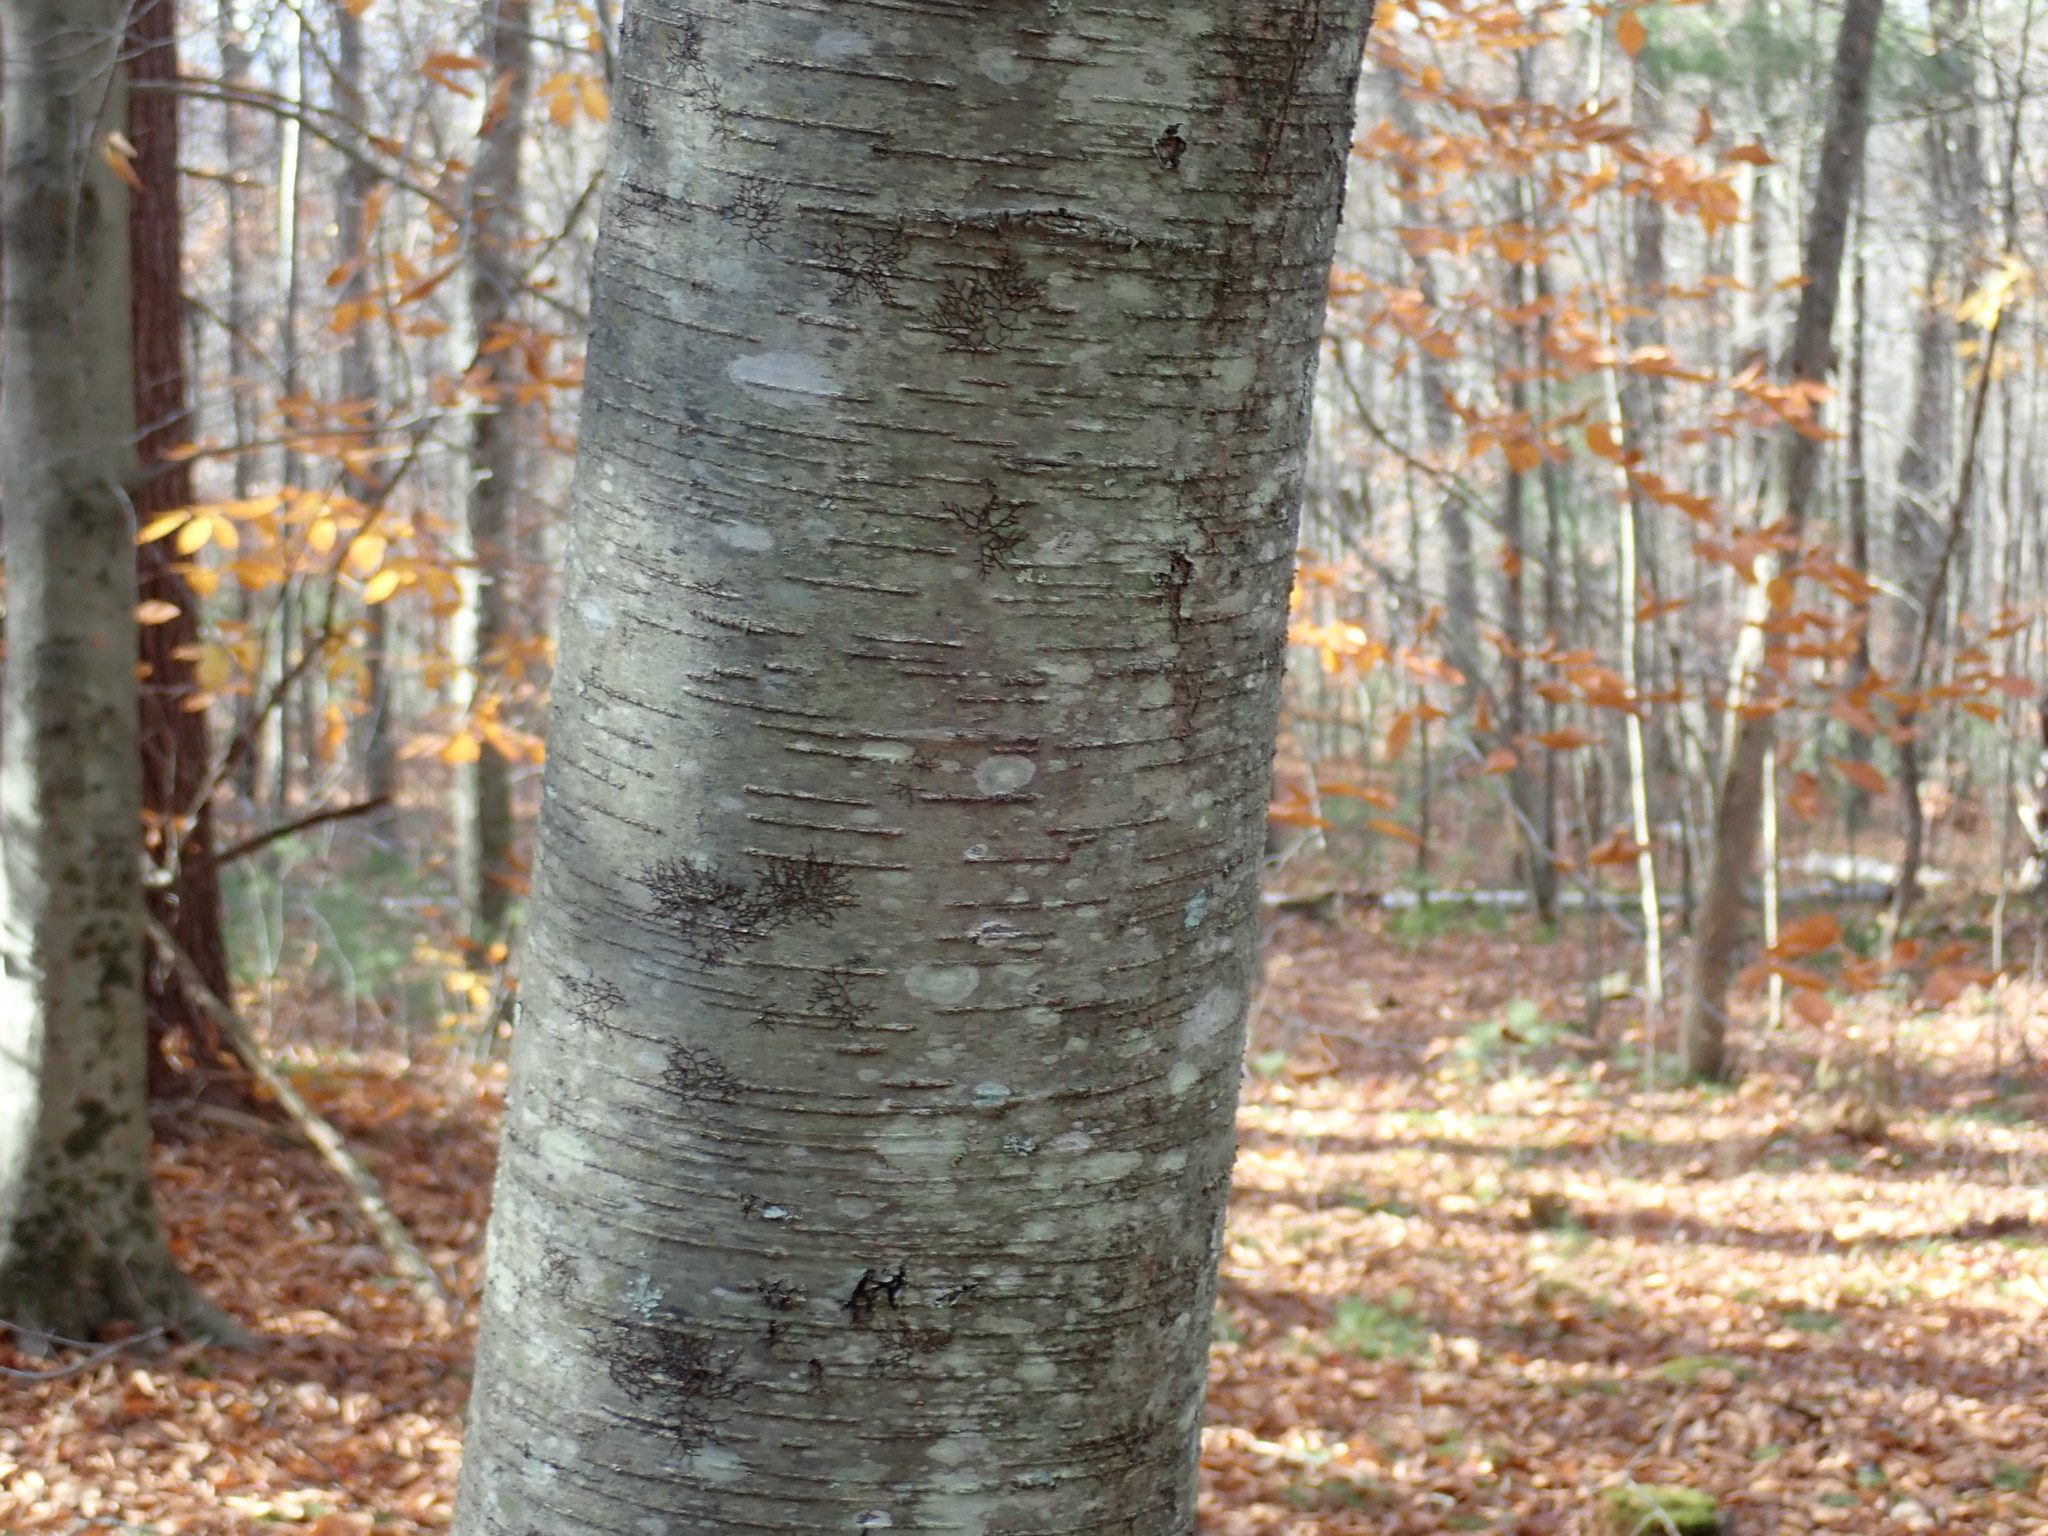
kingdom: Plantae
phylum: Tracheophyta
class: Magnoliopsida
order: Fagales
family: Betulaceae
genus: Betula
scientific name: Betula lenta
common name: Black birch
